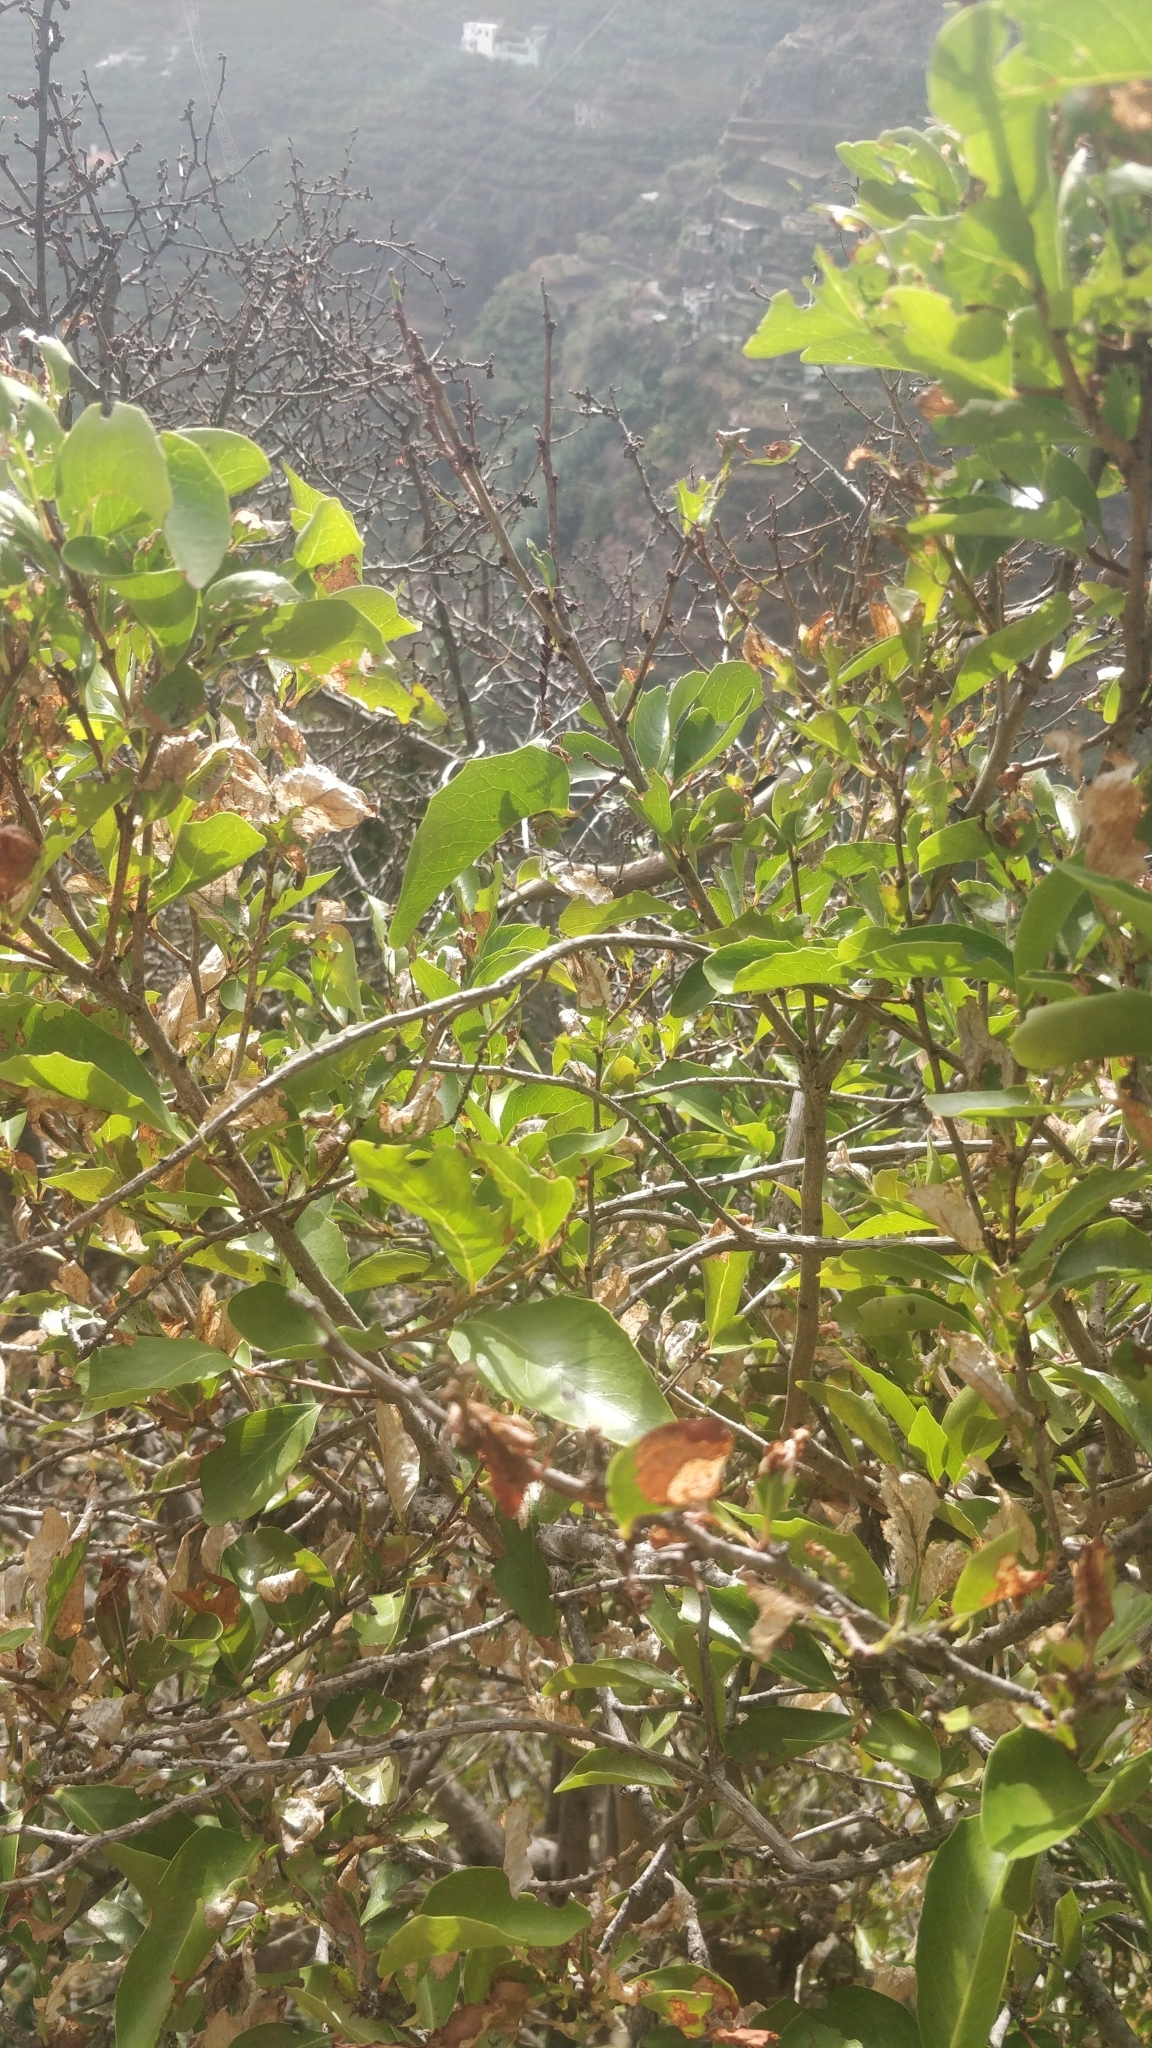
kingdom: Plantae
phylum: Tracheophyta
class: Magnoliopsida
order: Celastrales
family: Celastraceae
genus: Gymnosporia
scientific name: Gymnosporia dryandri
